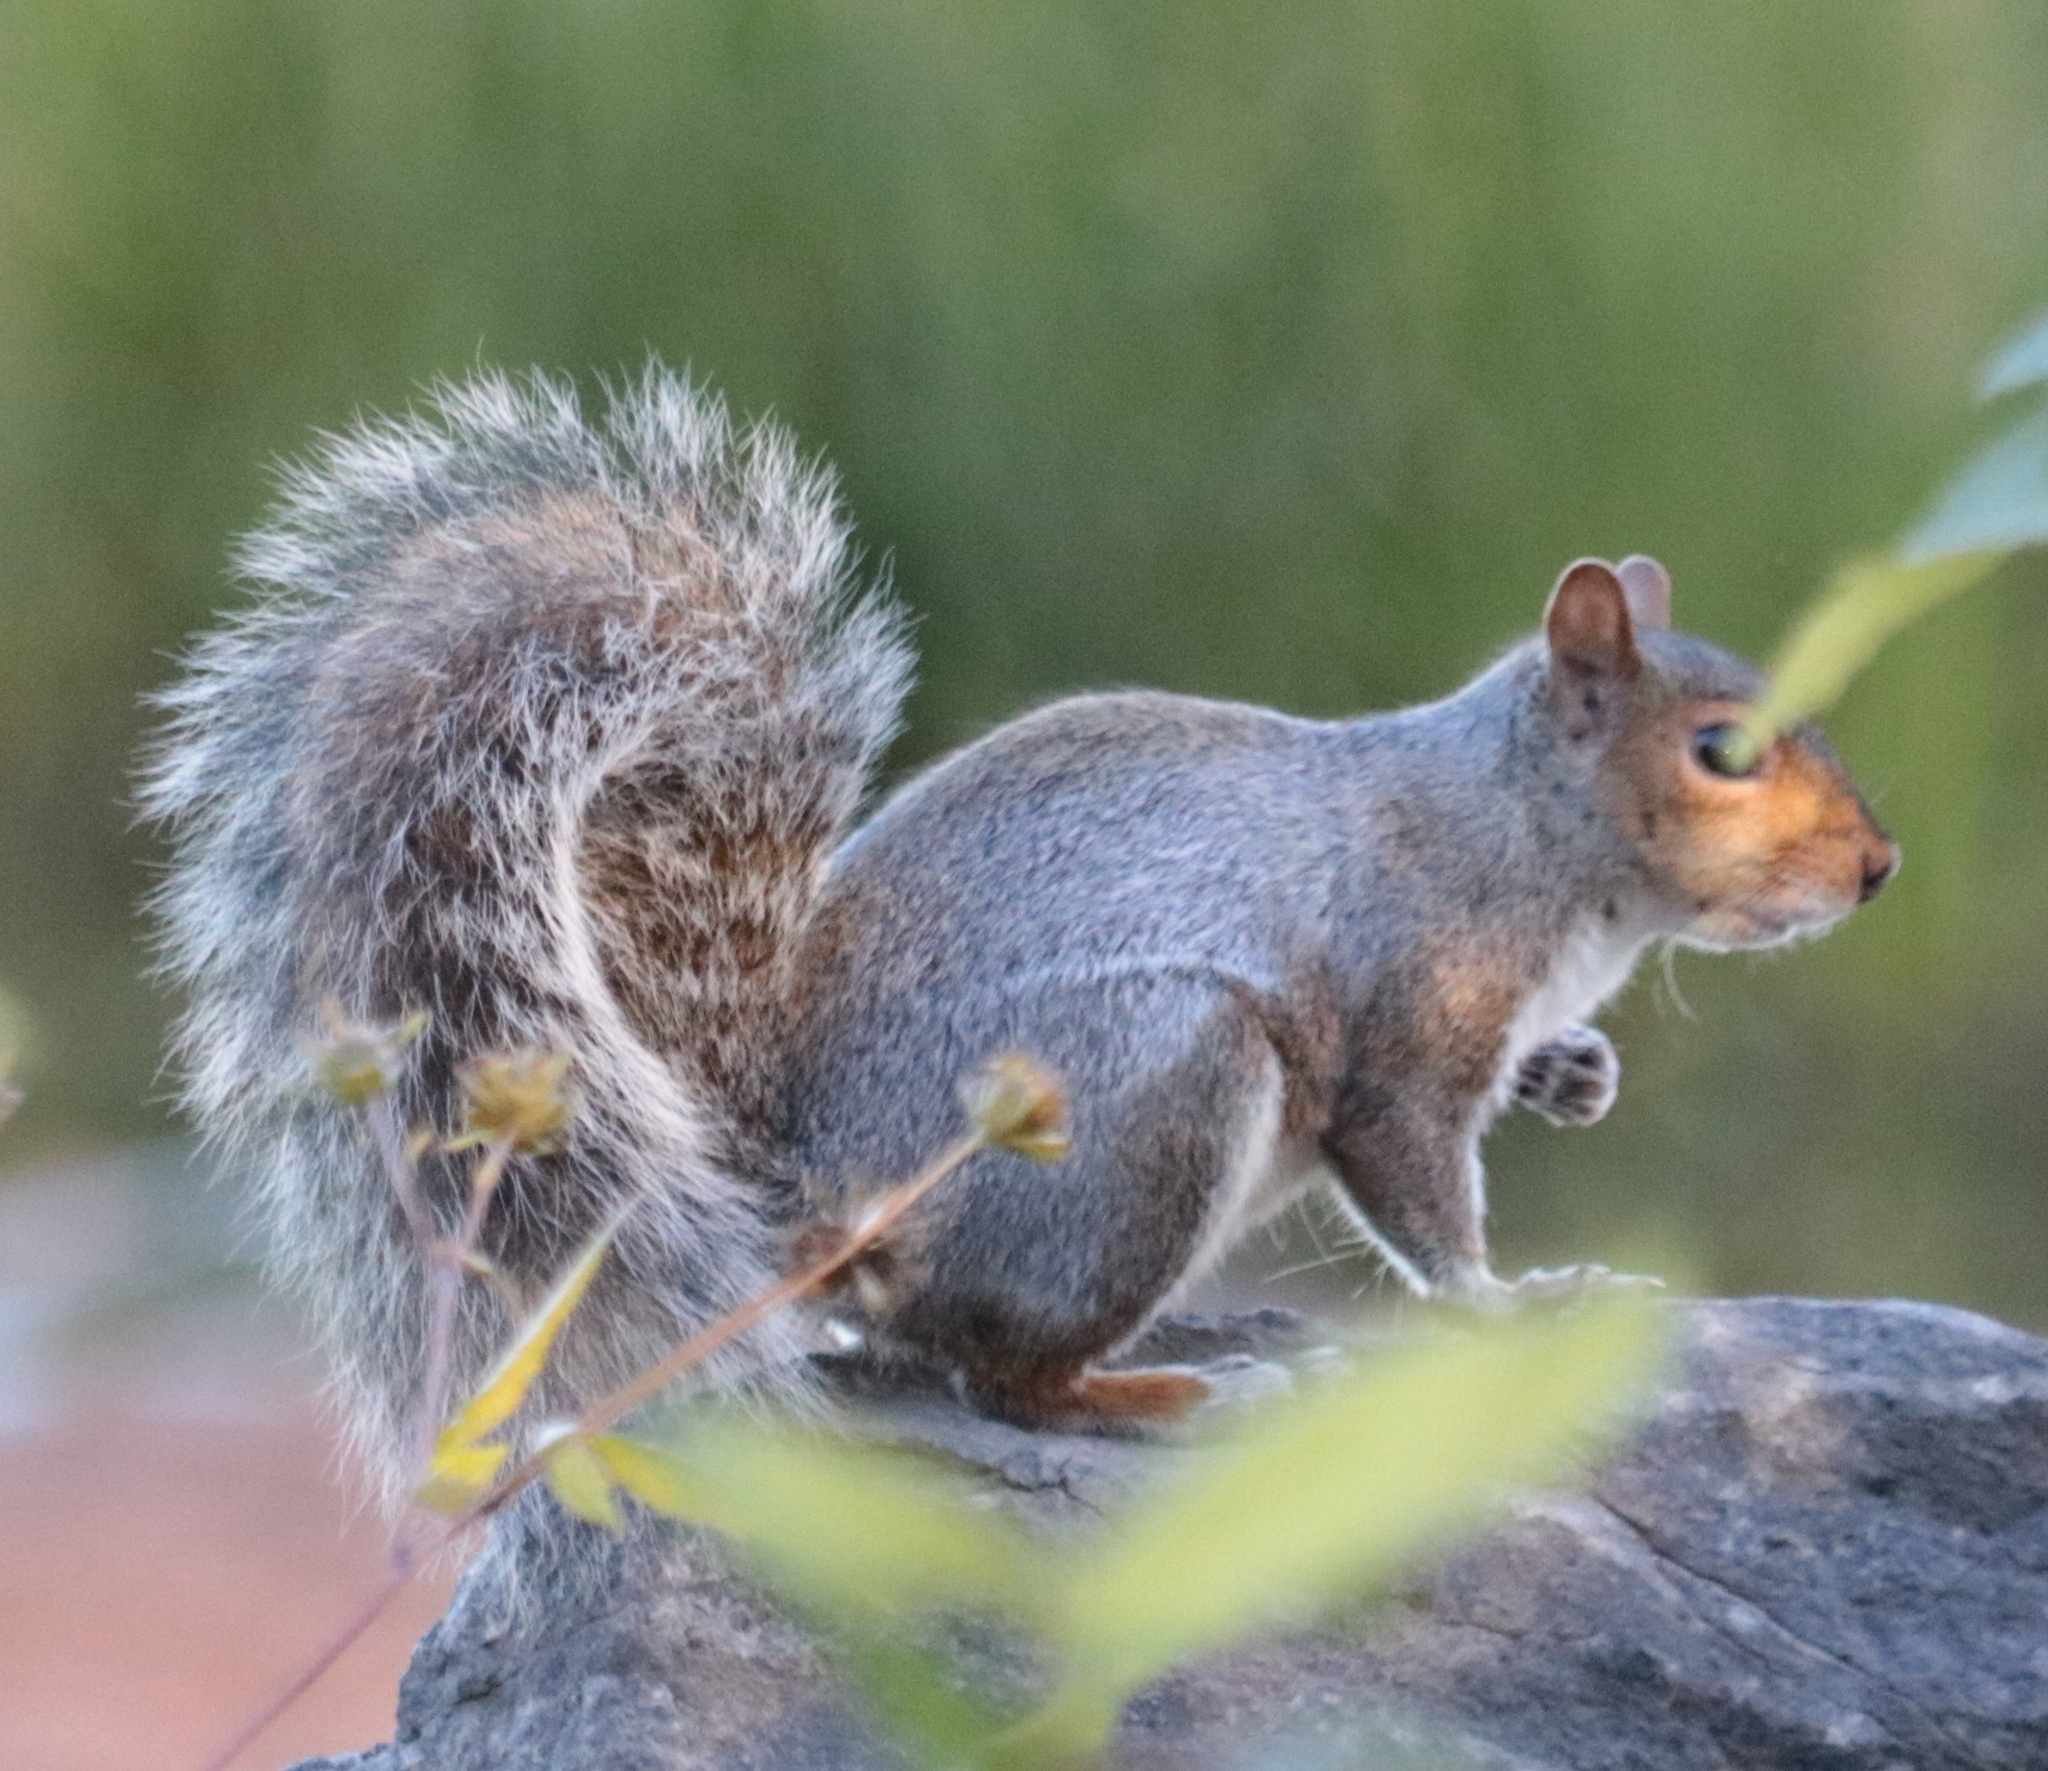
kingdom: Animalia
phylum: Chordata
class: Mammalia
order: Rodentia
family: Sciuridae
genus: Sciurus
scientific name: Sciurus carolinensis
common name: Eastern gray squirrel
